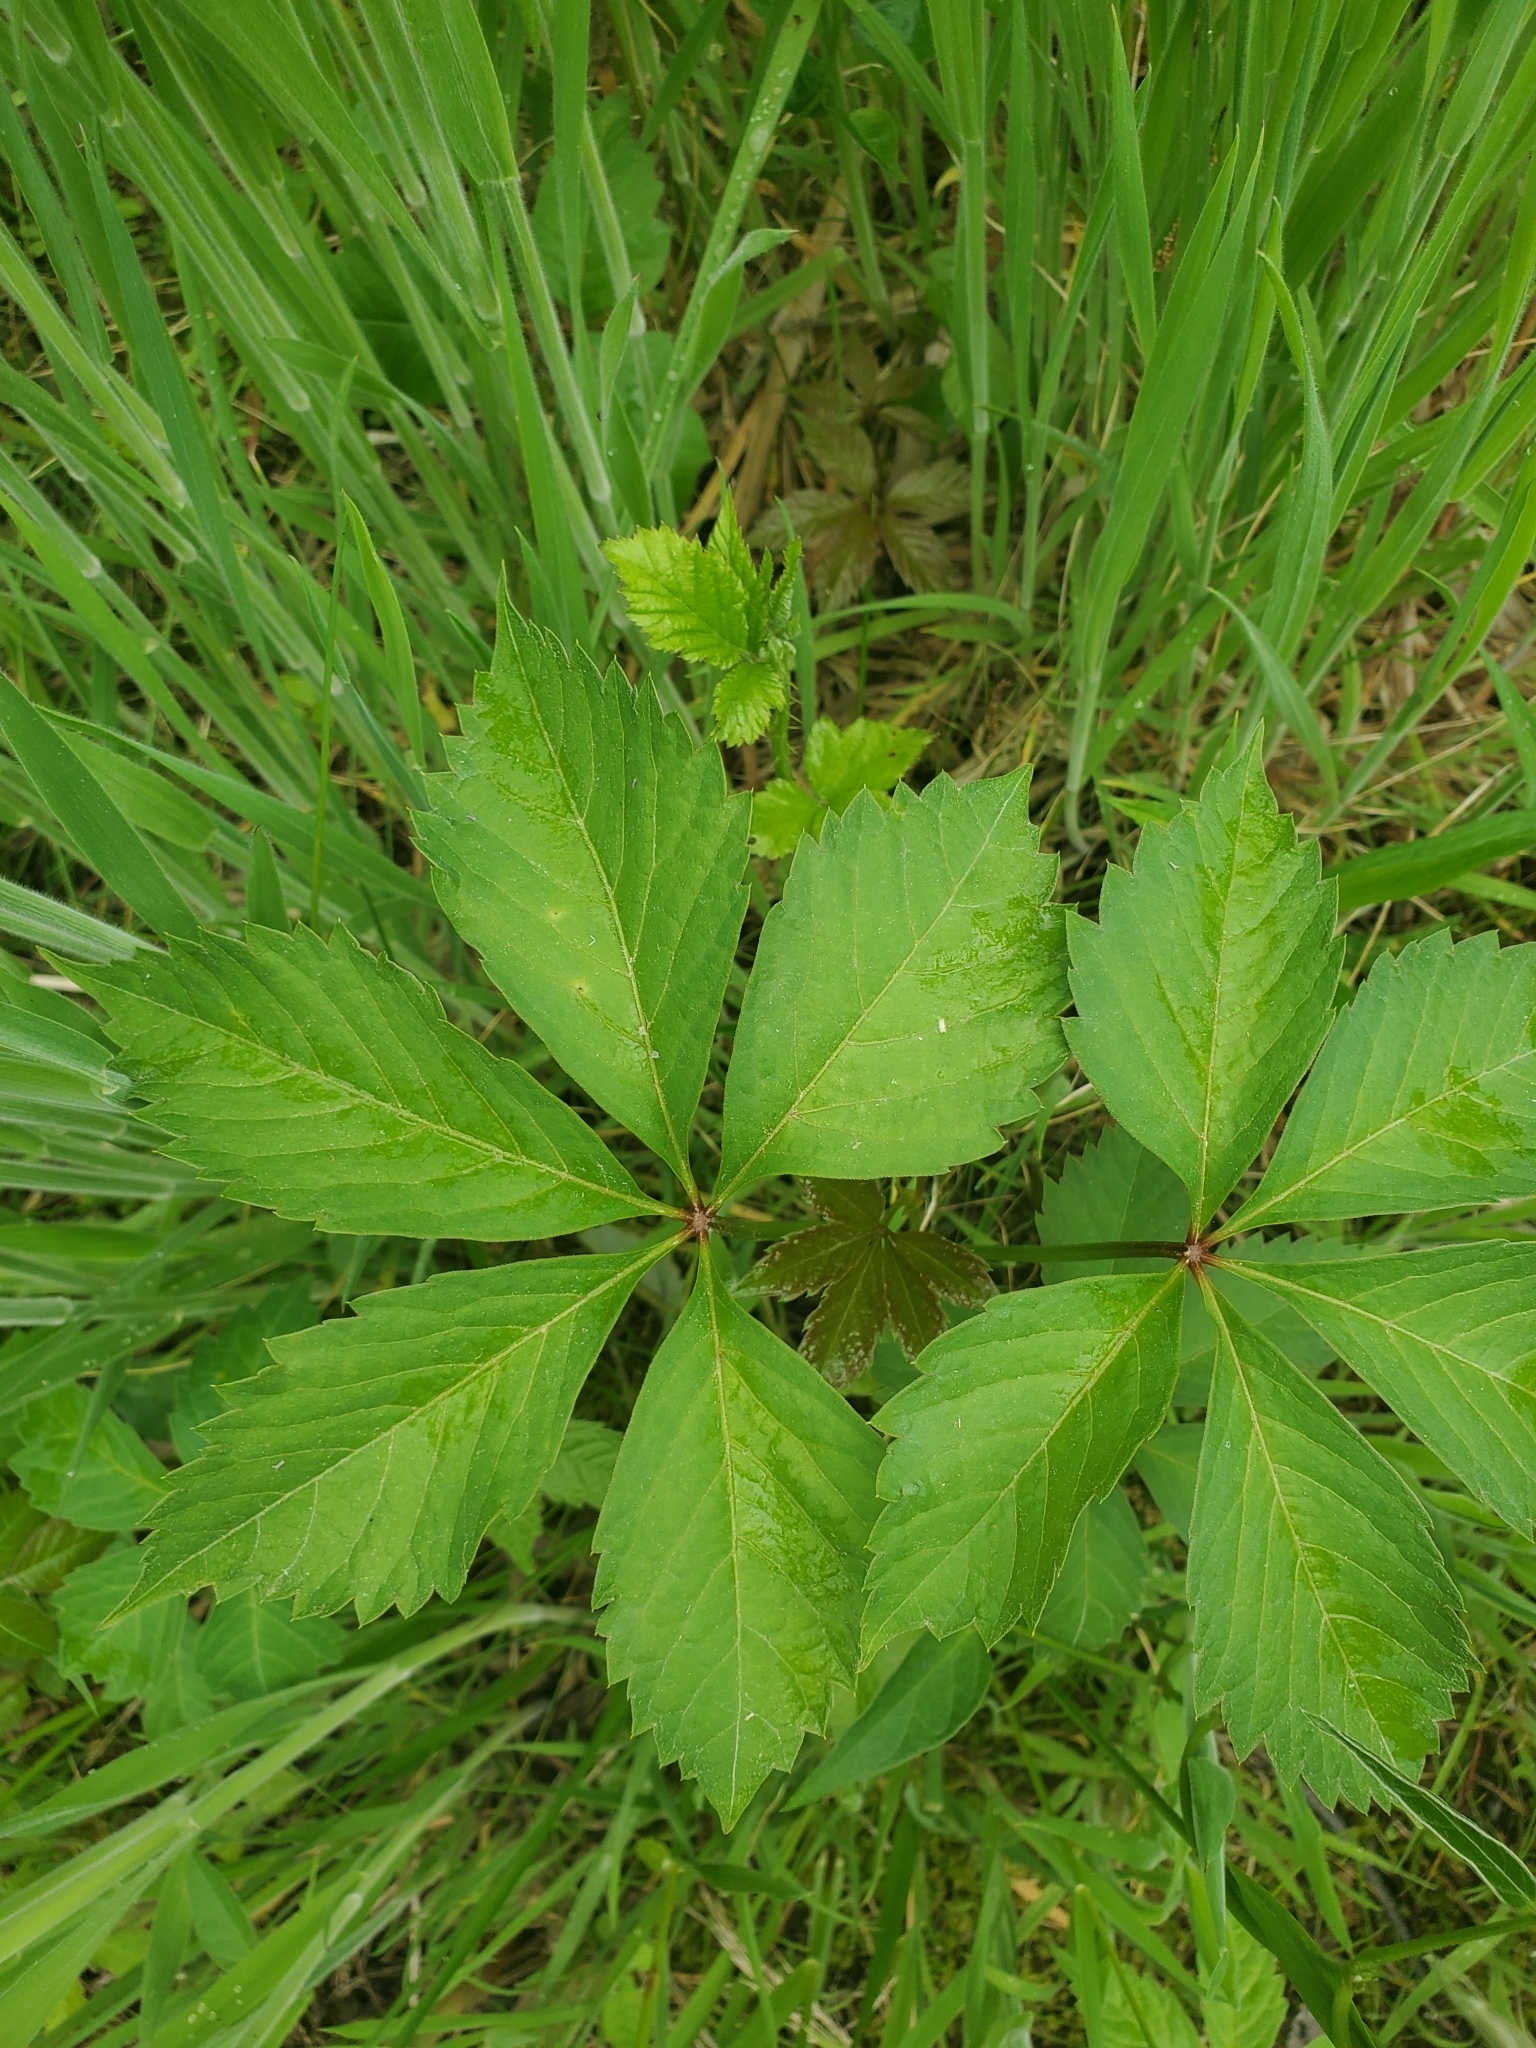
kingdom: Plantae
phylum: Tracheophyta
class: Magnoliopsida
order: Vitales
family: Vitaceae
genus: Parthenocissus
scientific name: Parthenocissus quinquefolia
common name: Virginia-creeper
